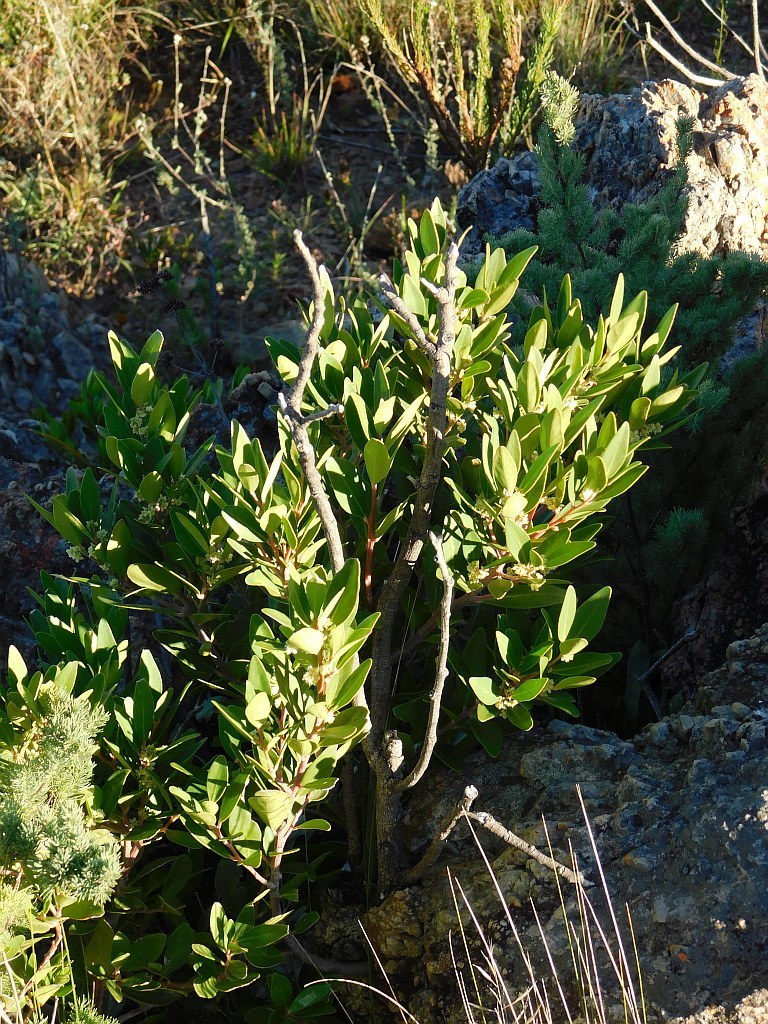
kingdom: Plantae
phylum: Tracheophyta
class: Magnoliopsida
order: Celastrales
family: Celastraceae
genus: Gymnosporia
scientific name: Gymnosporia laurina
